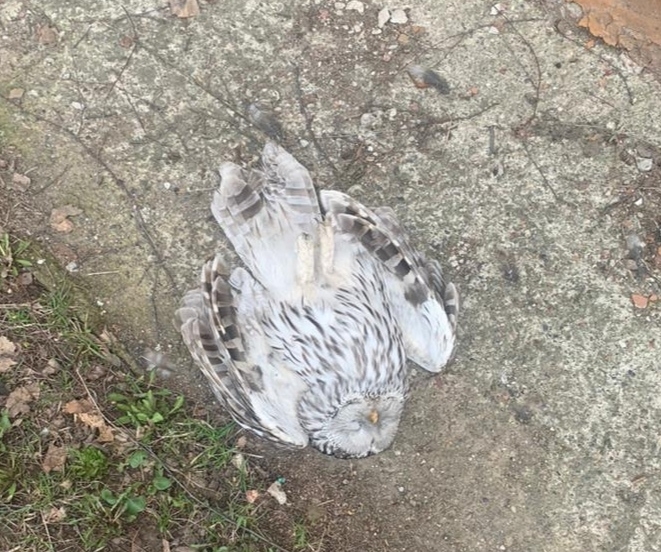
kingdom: Animalia
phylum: Chordata
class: Aves
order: Strigiformes
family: Strigidae
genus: Strix
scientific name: Strix uralensis
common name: Ural owl
